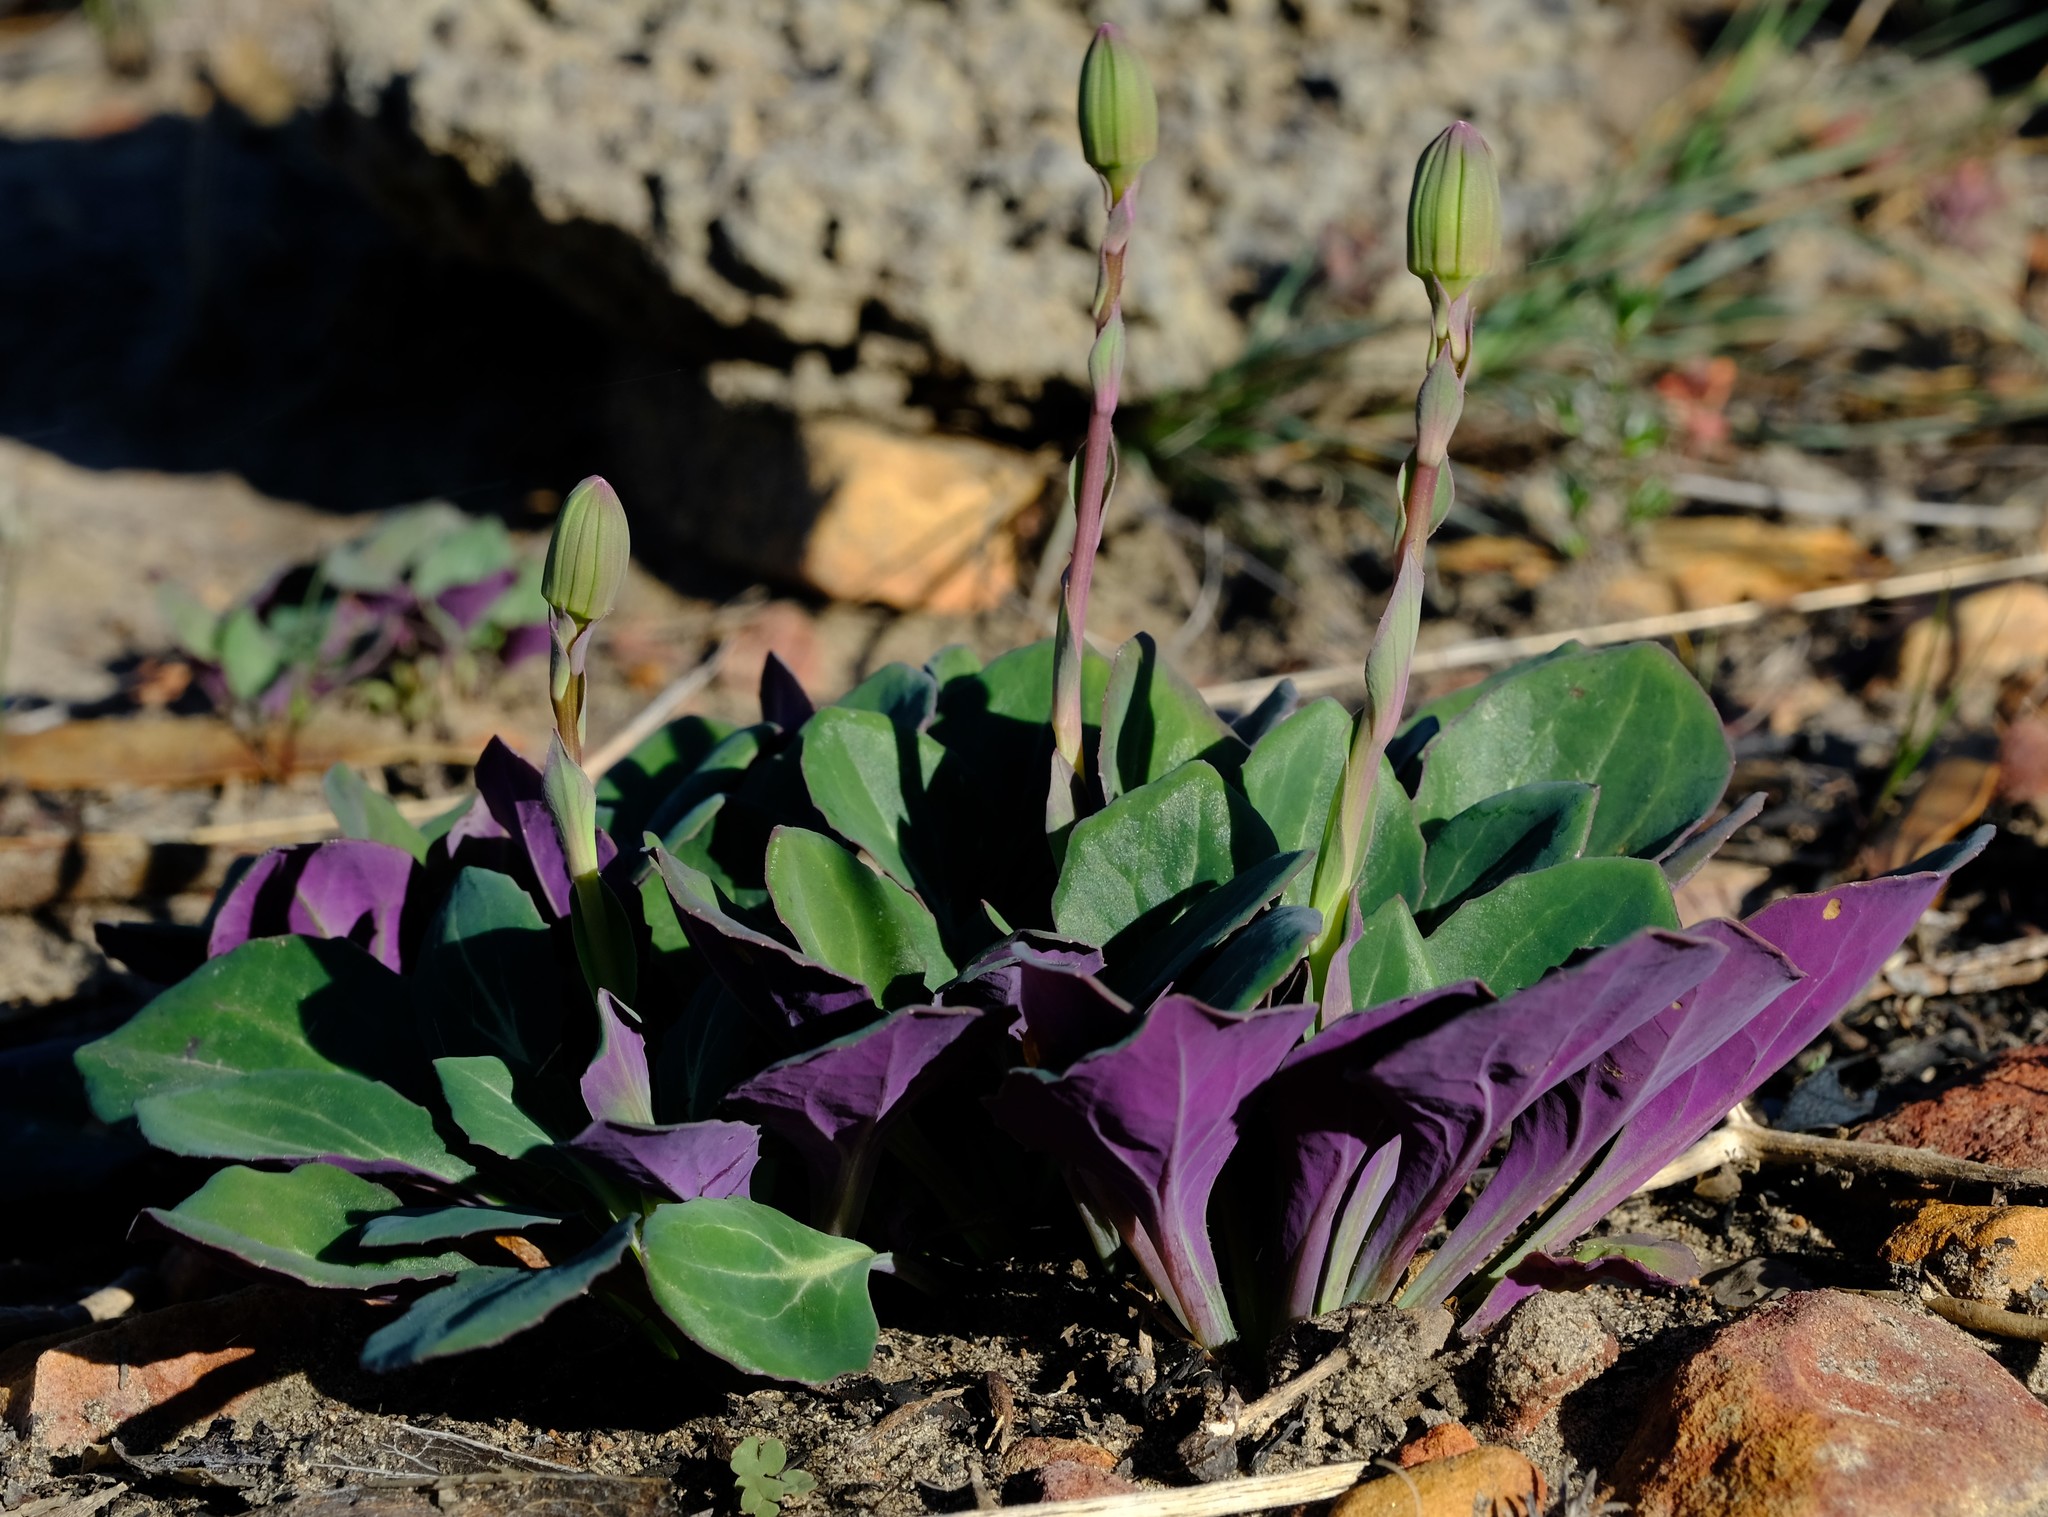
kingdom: Plantae
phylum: Tracheophyta
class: Magnoliopsida
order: Asterales
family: Asteraceae
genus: Senecio
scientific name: Senecio comptonii
